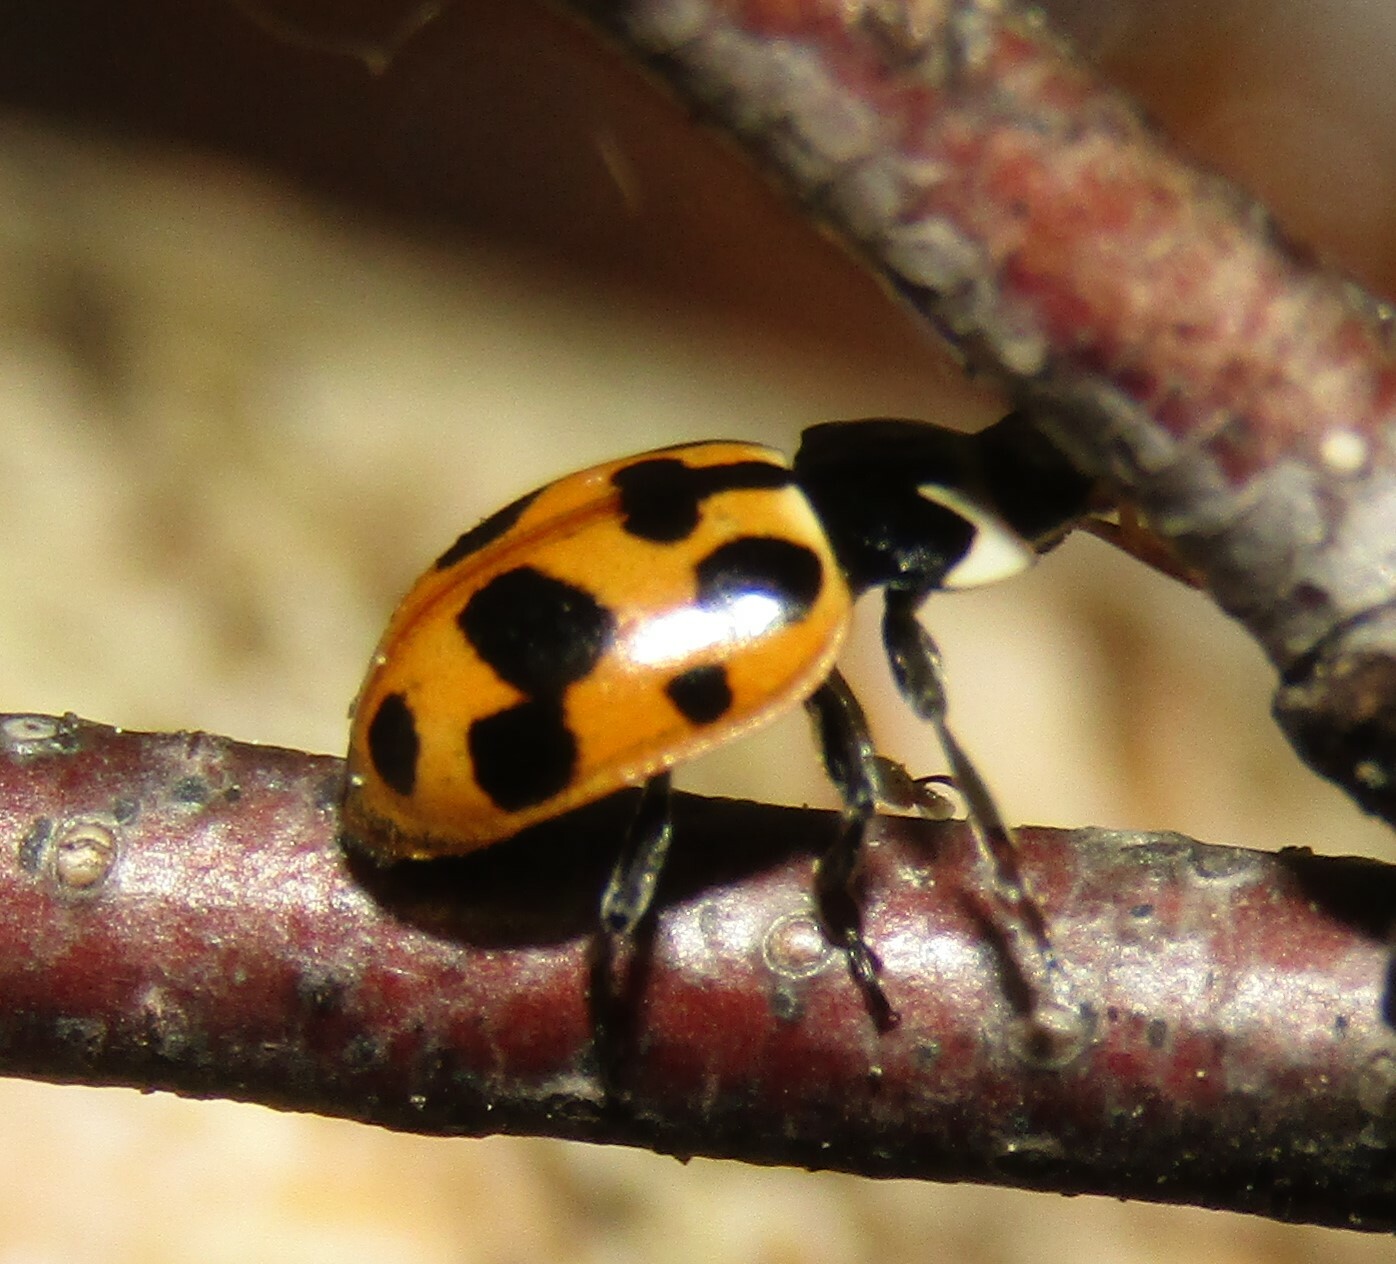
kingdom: Animalia
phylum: Arthropoda
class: Insecta
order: Coleoptera
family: Coccinellidae
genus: Ceratomegilla
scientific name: Ceratomegilla notata
